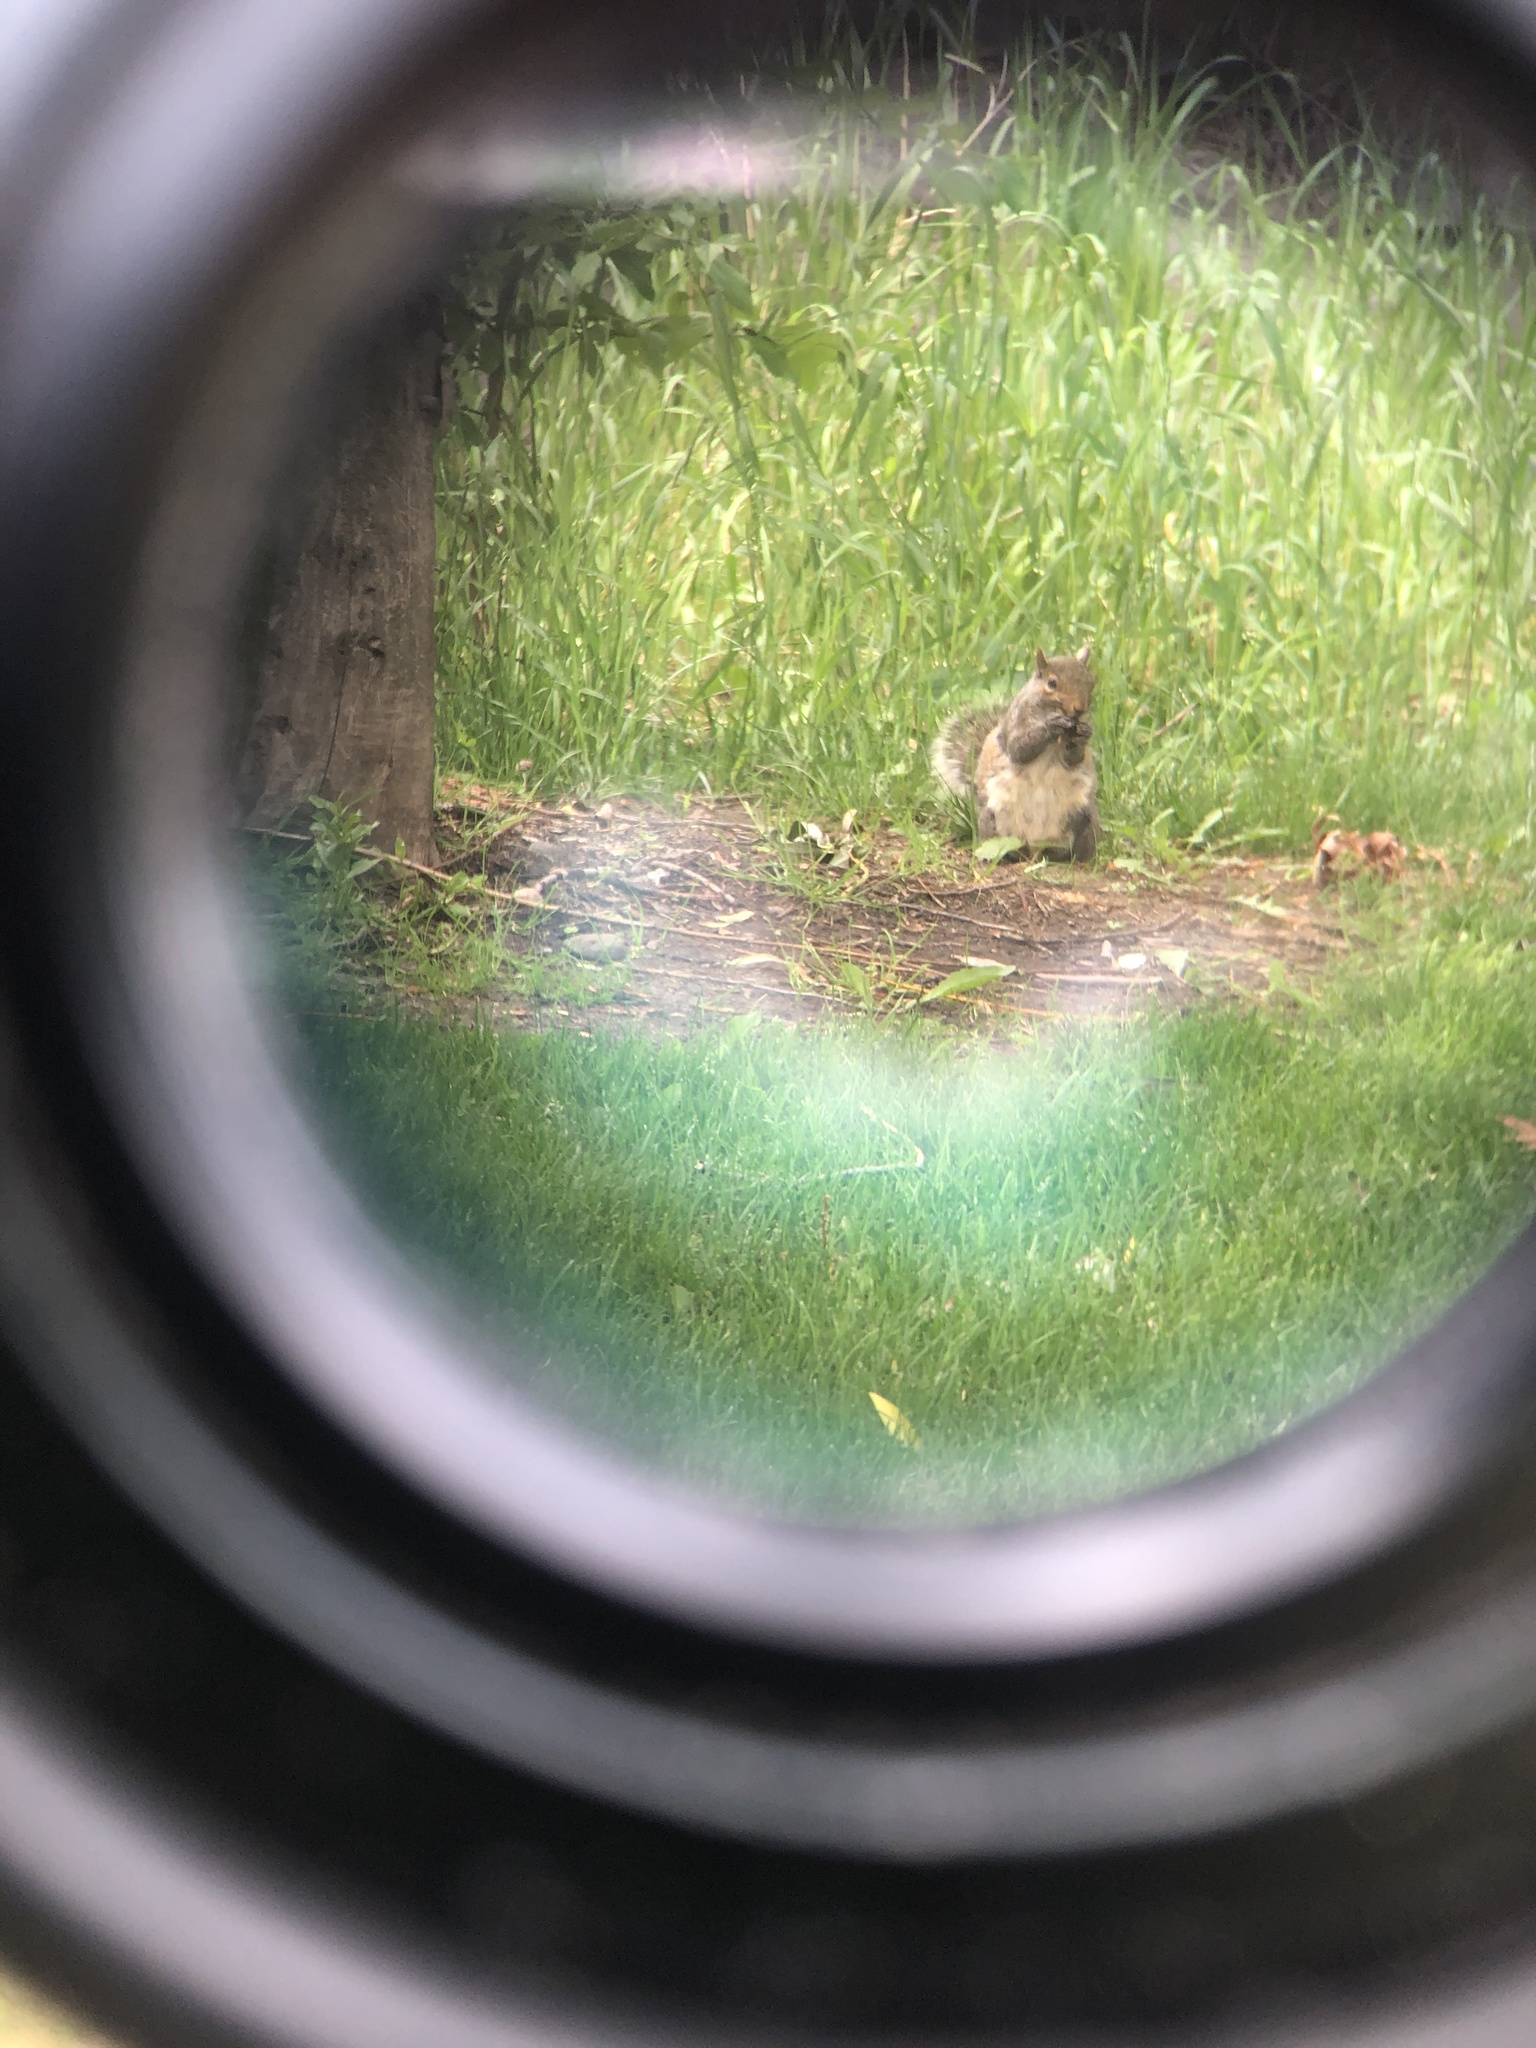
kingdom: Animalia
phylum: Chordata
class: Mammalia
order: Rodentia
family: Sciuridae
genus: Sciurus
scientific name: Sciurus carolinensis
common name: Eastern gray squirrel
